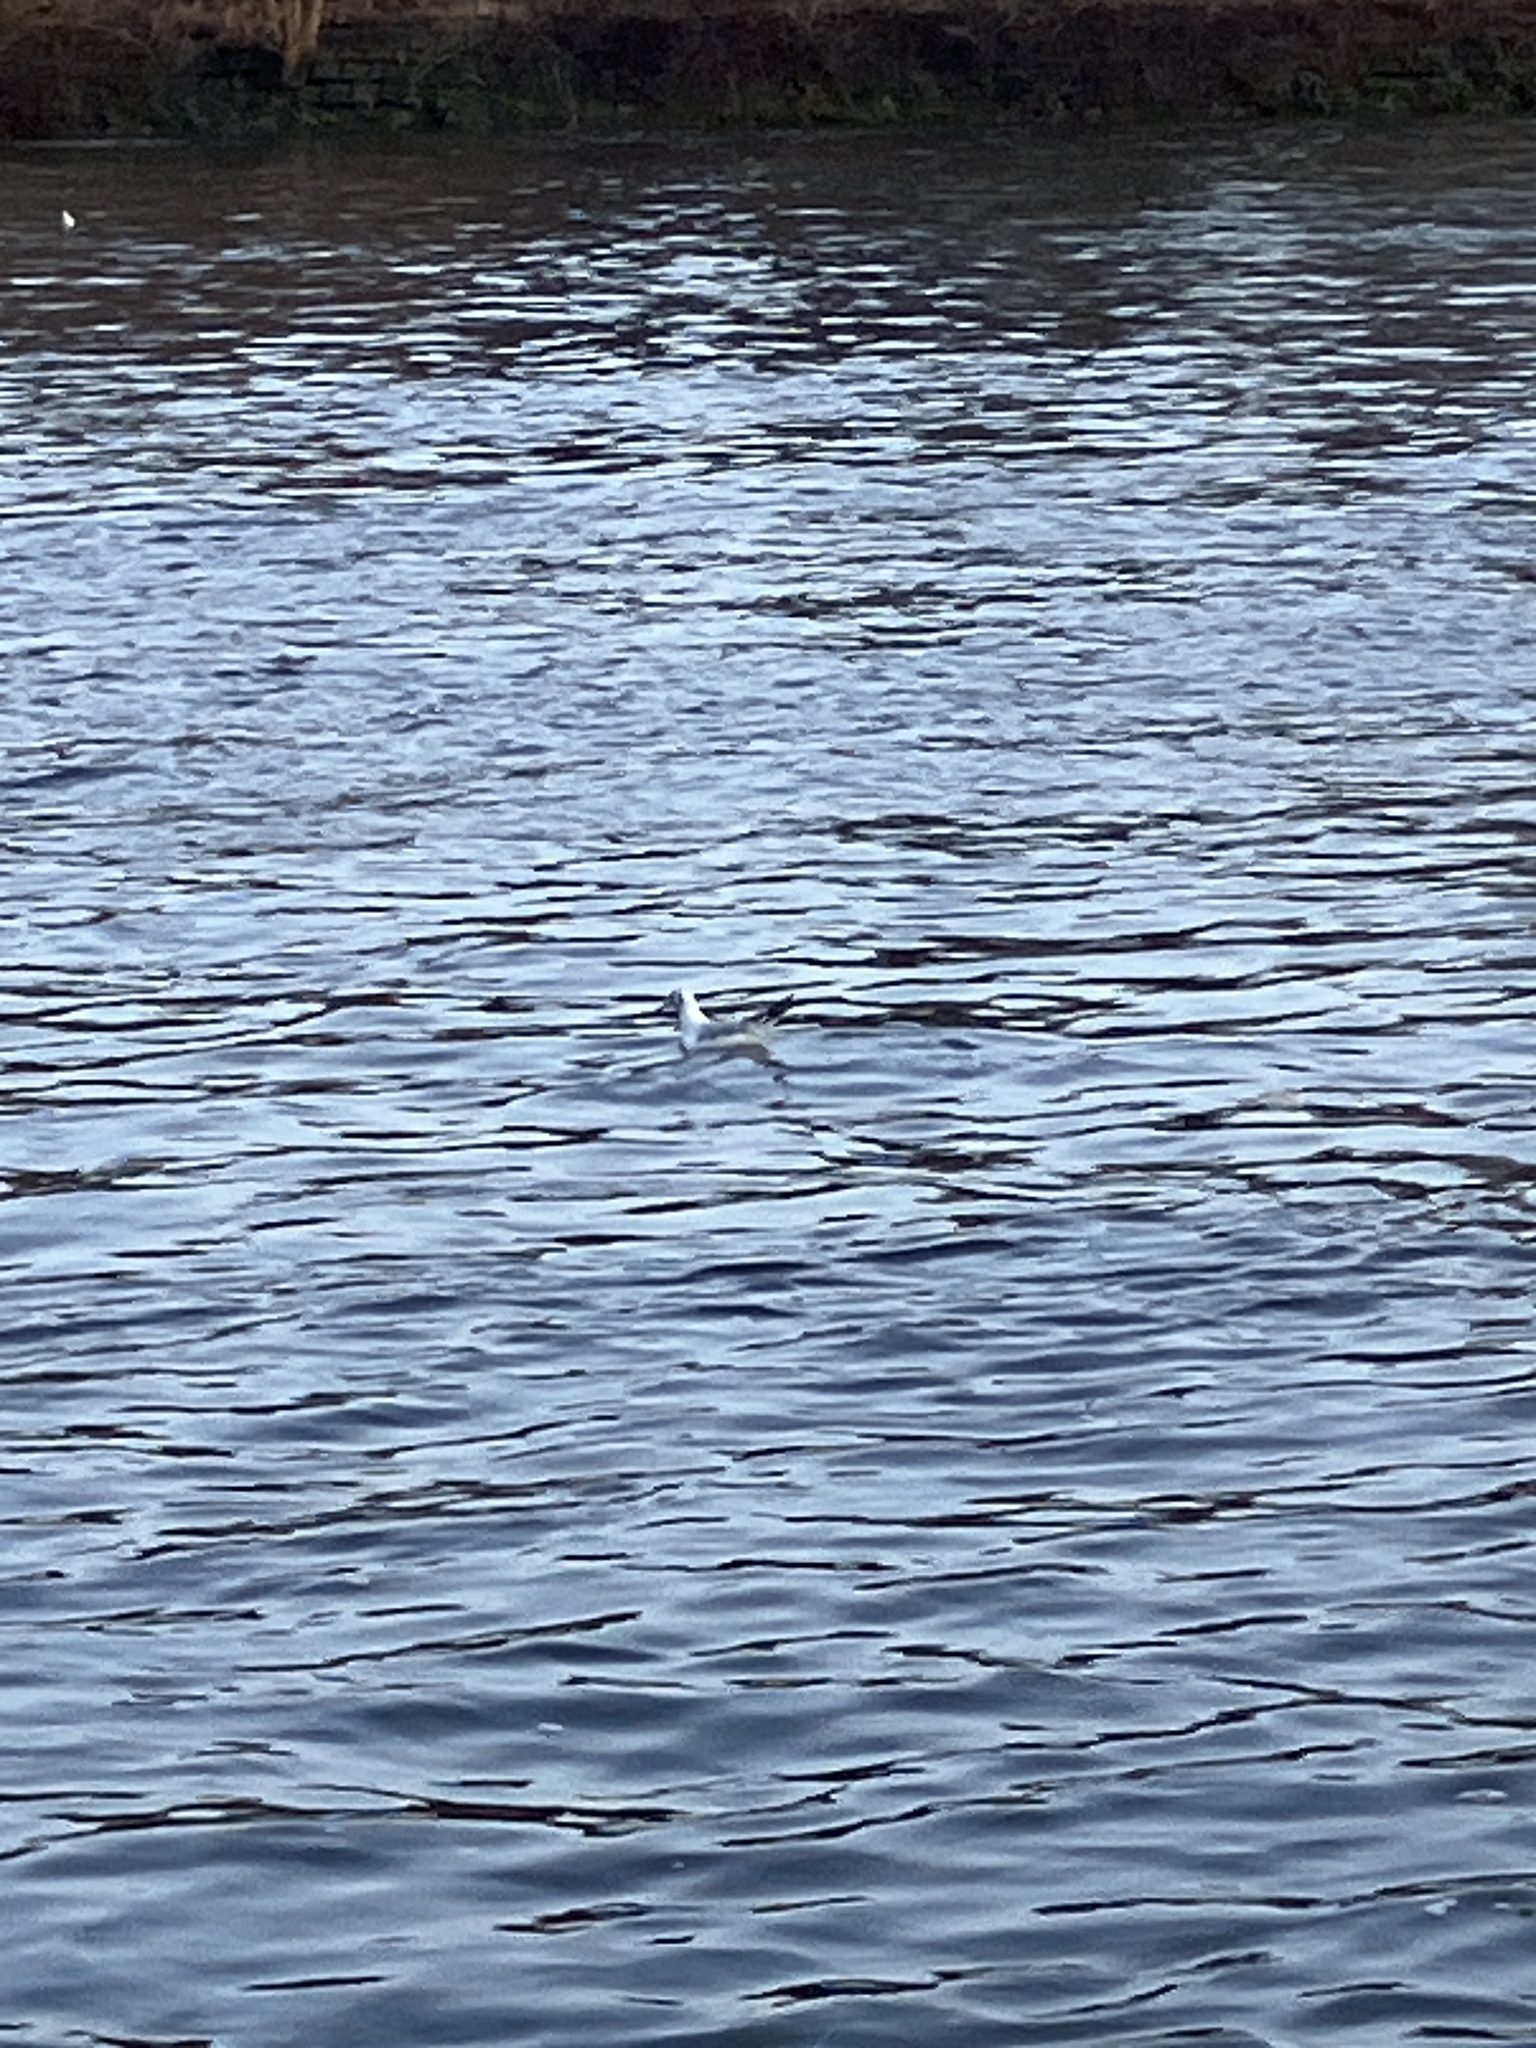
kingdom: Animalia
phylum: Chordata
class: Aves
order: Charadriiformes
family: Laridae
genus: Chroicocephalus
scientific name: Chroicocephalus ridibundus
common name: Black-headed gull
